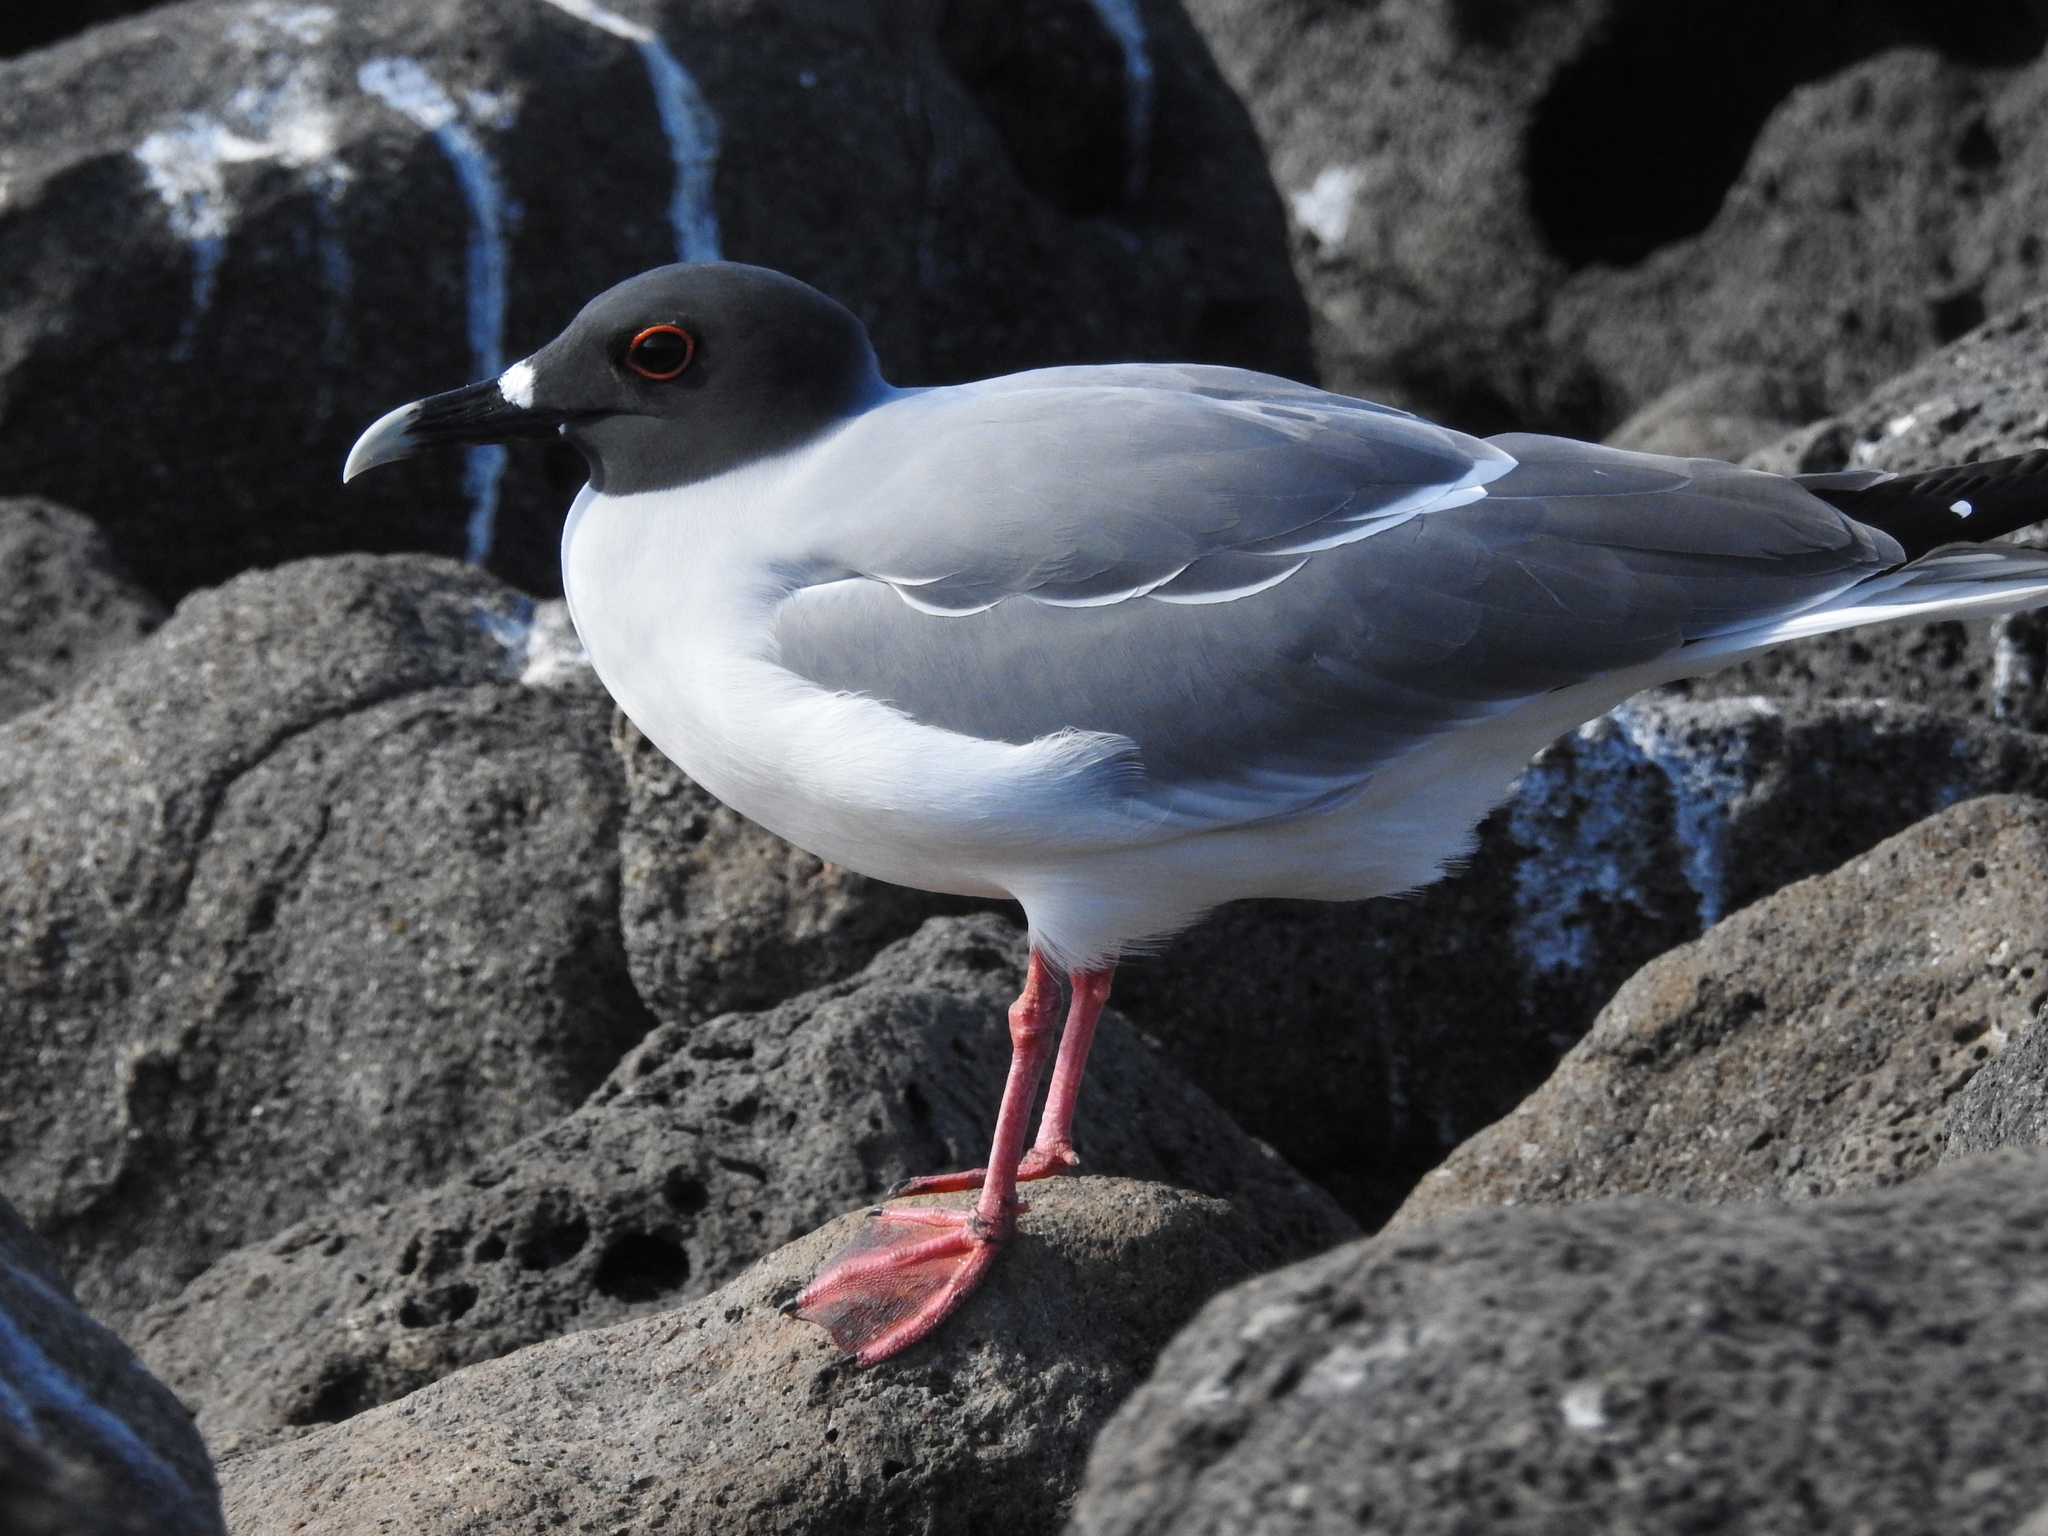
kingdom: Animalia
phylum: Chordata
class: Aves
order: Charadriiformes
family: Laridae
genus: Creagrus
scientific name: Creagrus furcatus
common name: Swallow-tailed gull
